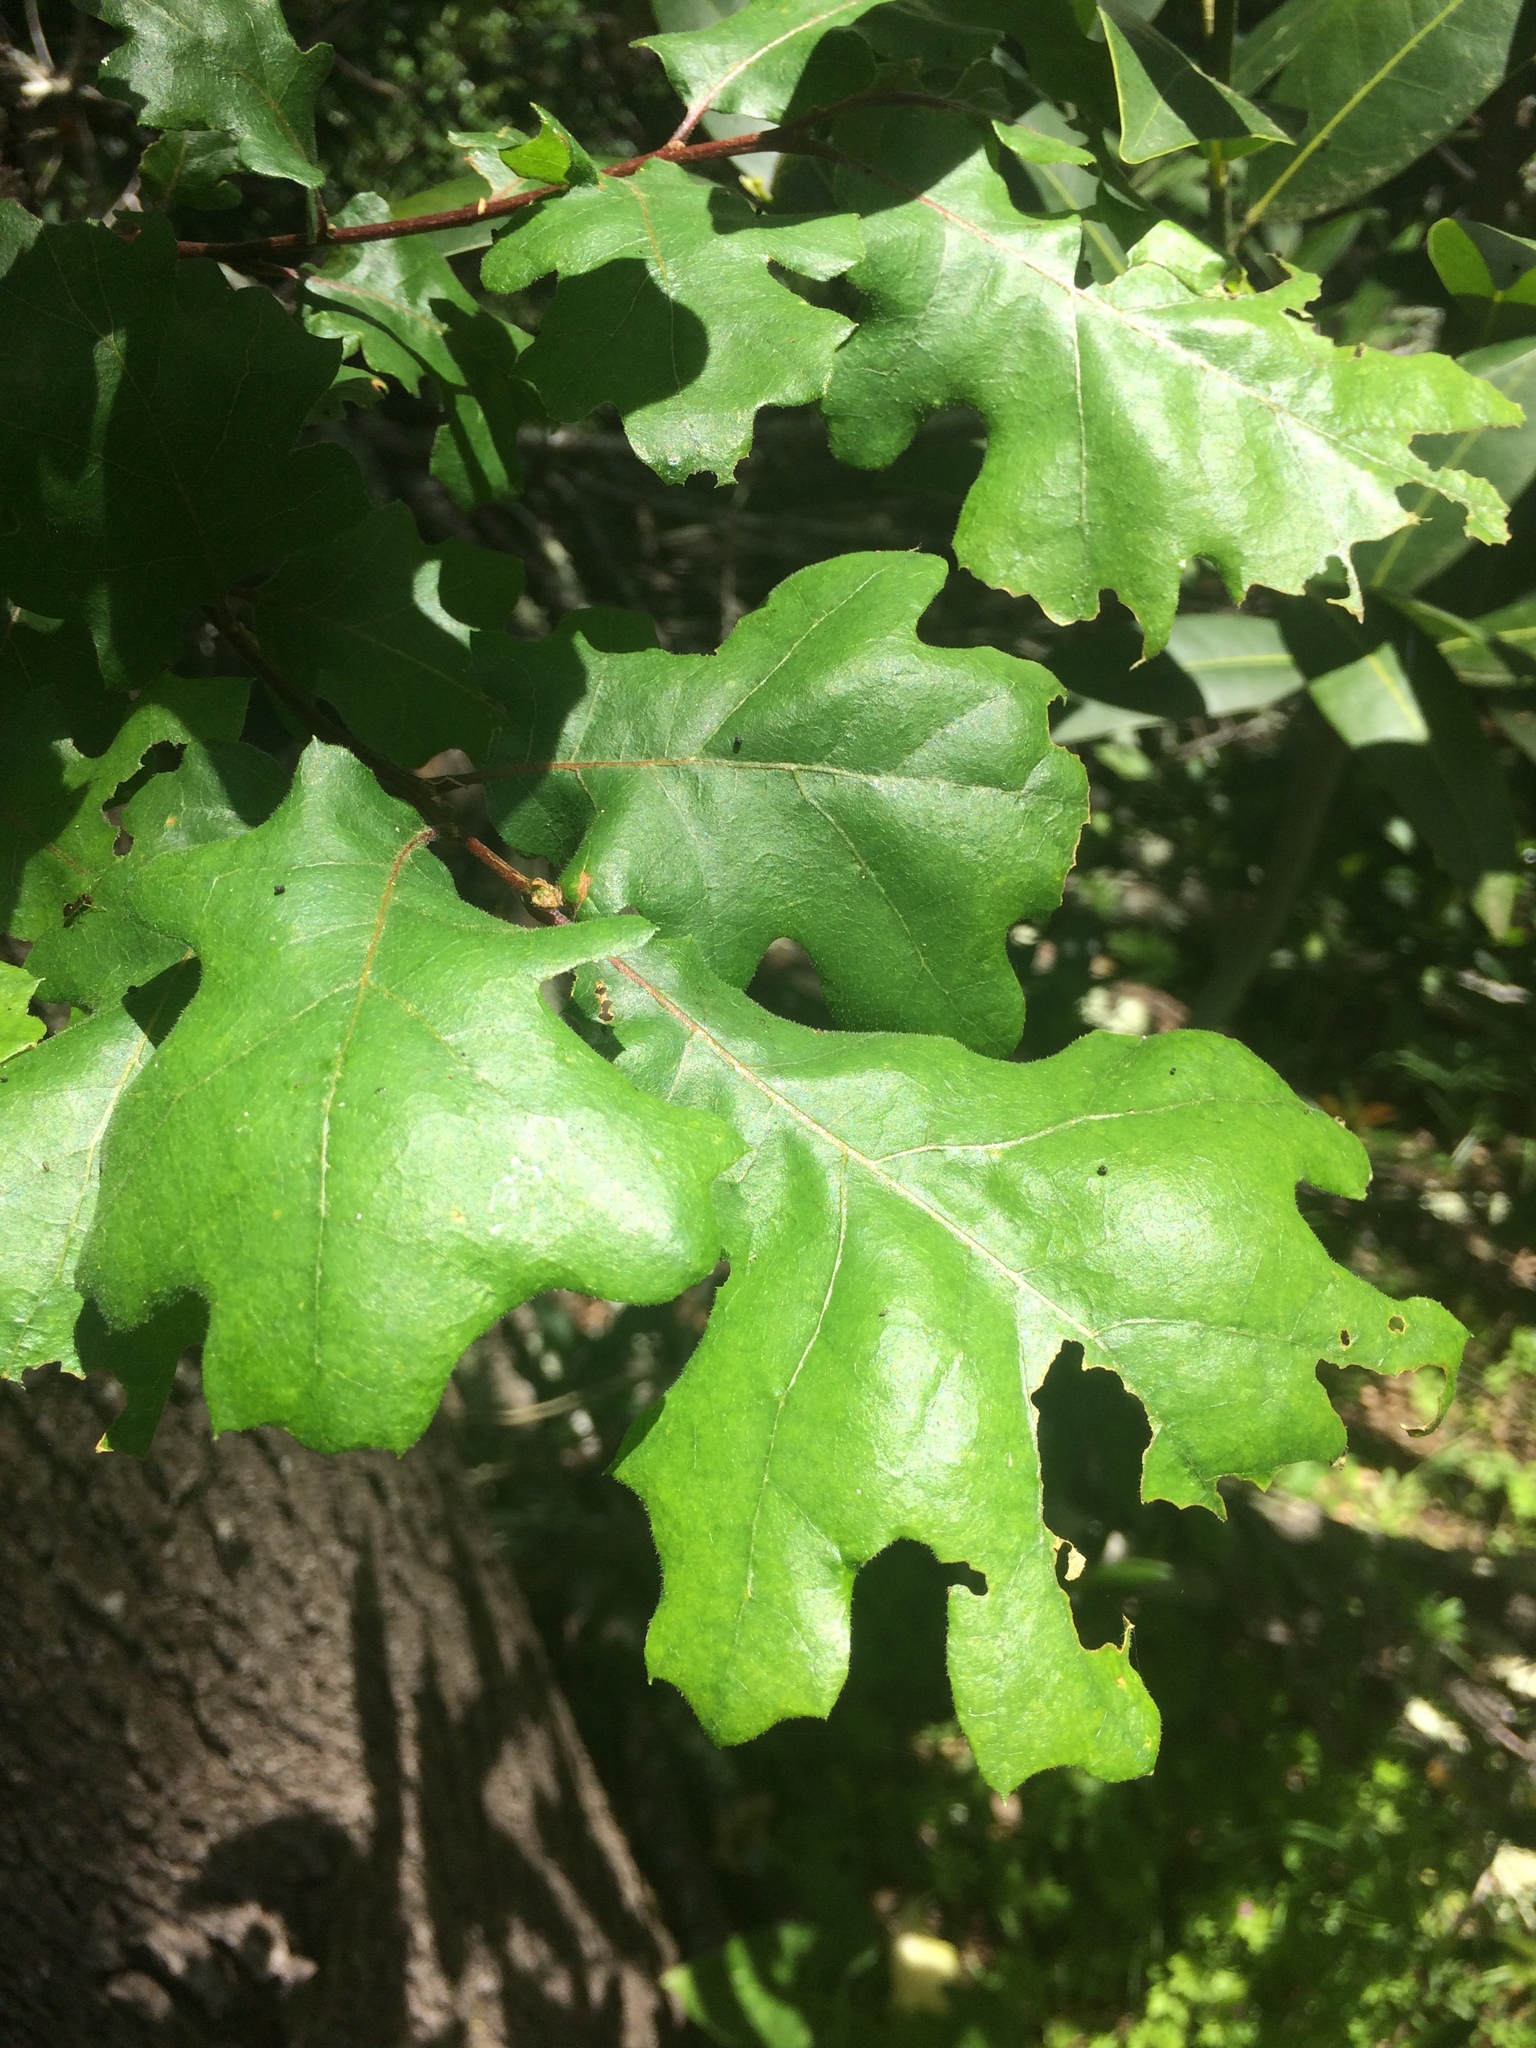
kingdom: Plantae
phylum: Tracheophyta
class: Magnoliopsida
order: Fagales
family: Fagaceae
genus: Quercus
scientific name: Quercus kelloggii
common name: California black oak
